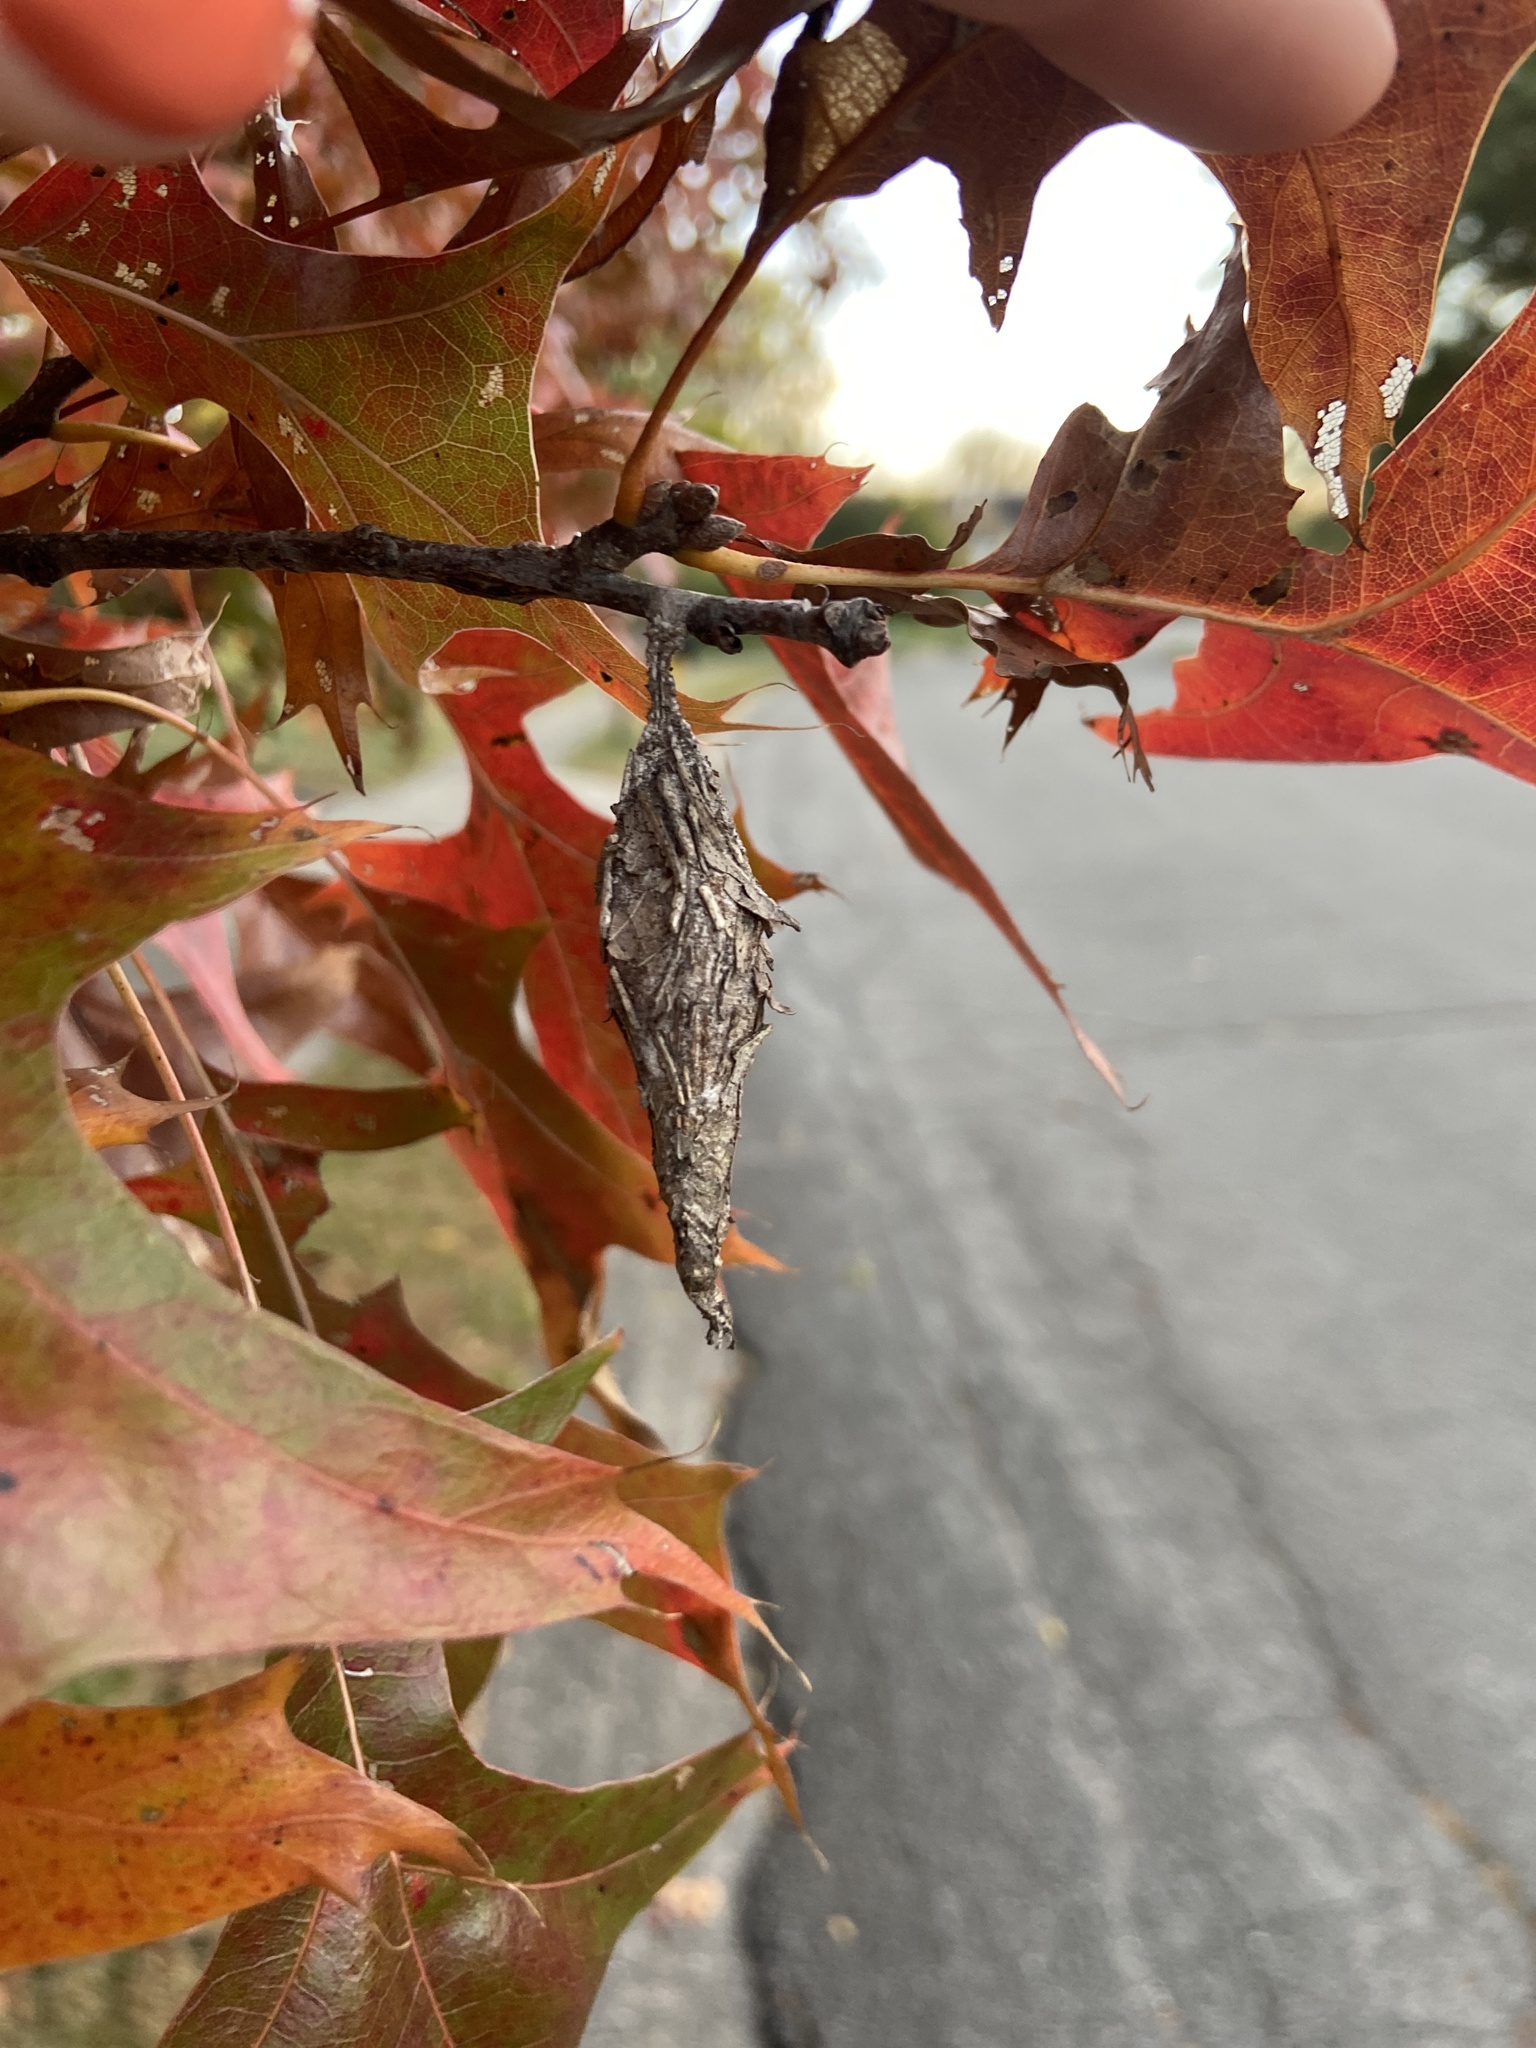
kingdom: Animalia
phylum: Arthropoda
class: Insecta
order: Lepidoptera
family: Psychidae
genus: Thyridopteryx
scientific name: Thyridopteryx ephemeraeformis
